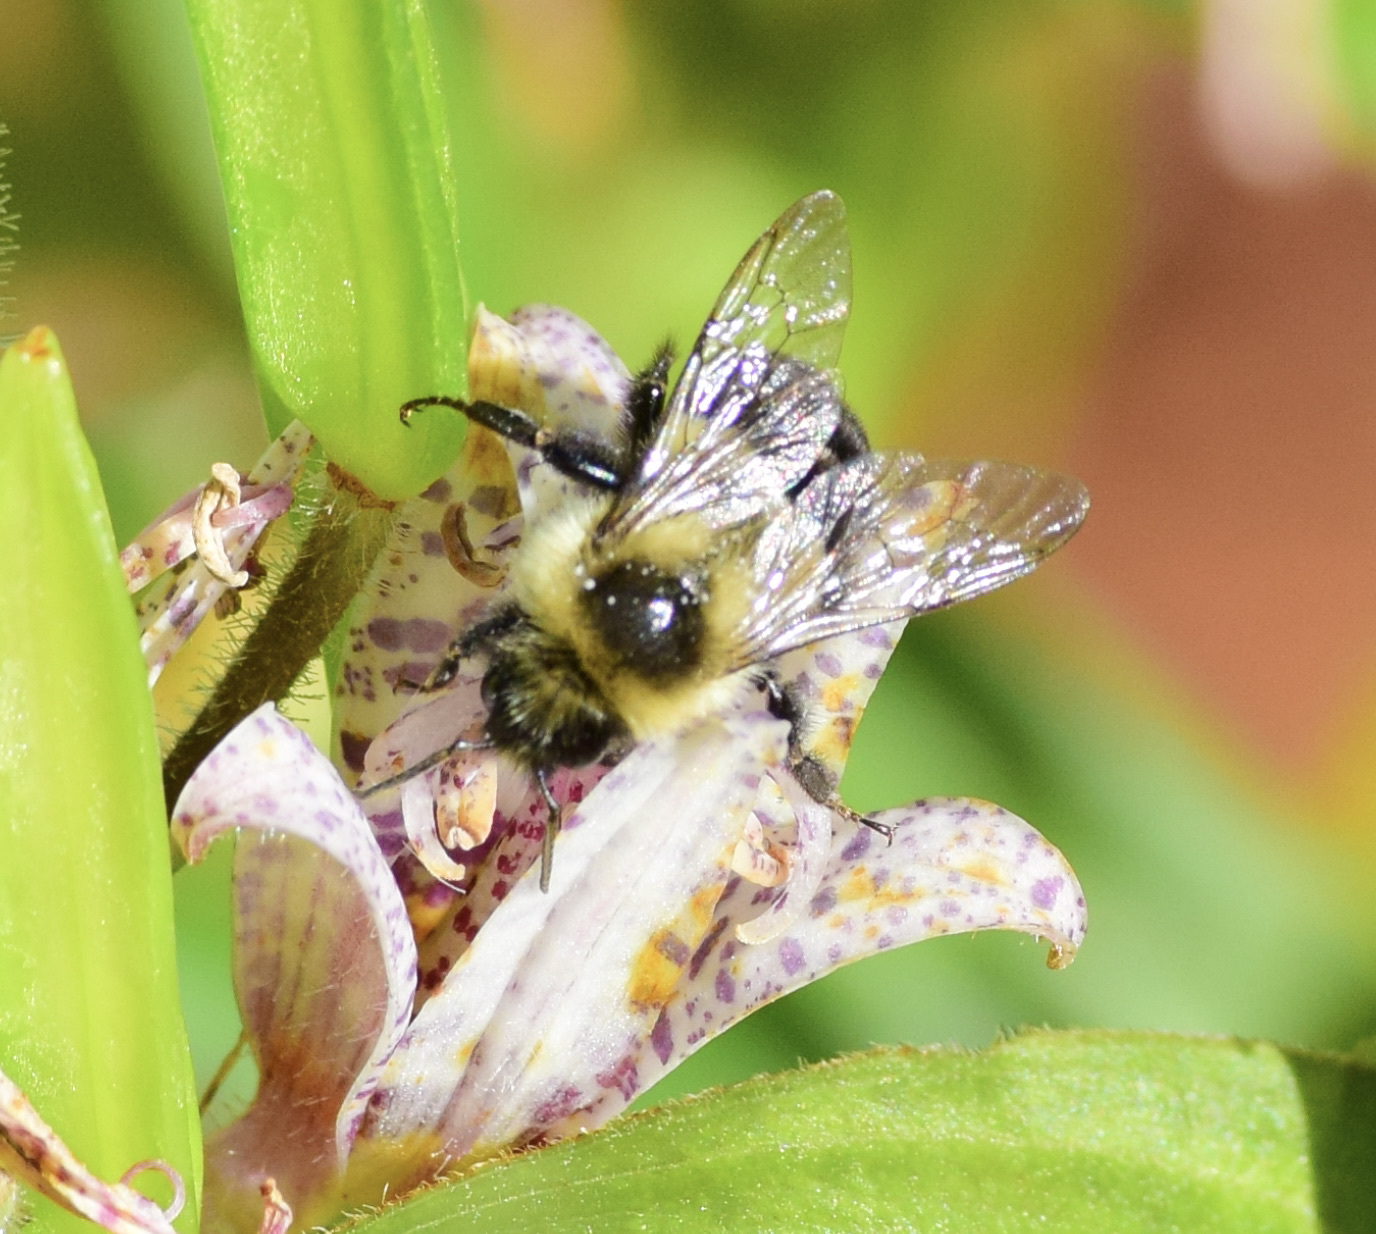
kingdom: Animalia
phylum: Arthropoda
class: Insecta
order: Hymenoptera
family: Apidae
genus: Bombus
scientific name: Bombus impatiens
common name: Common eastern bumble bee
